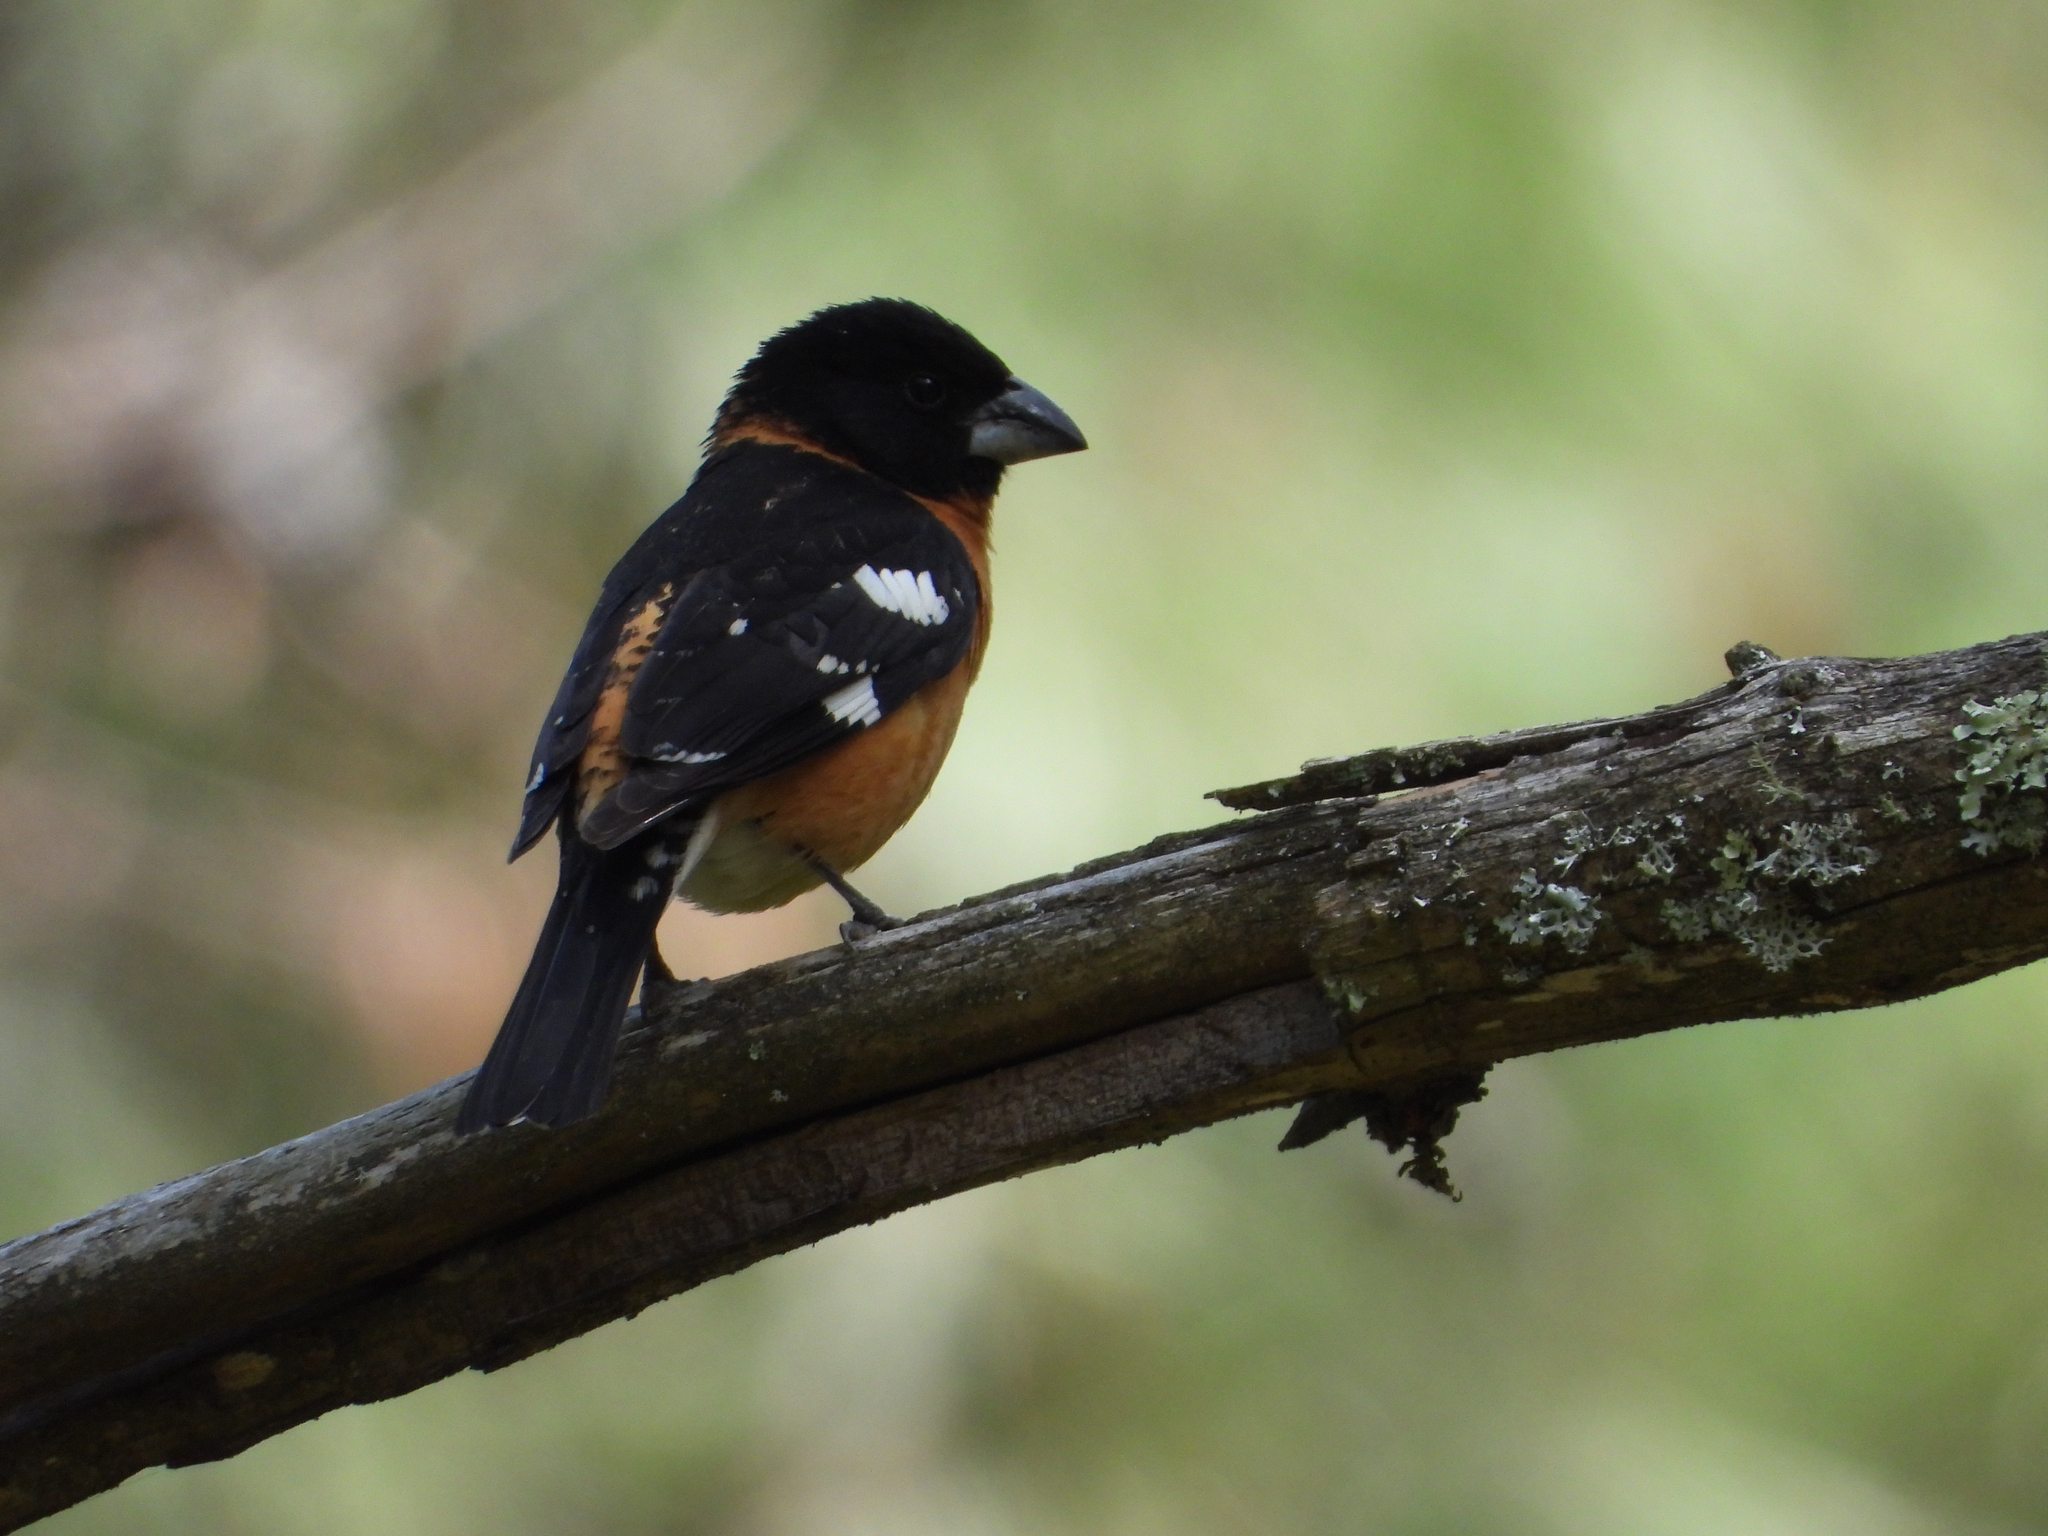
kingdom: Animalia
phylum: Chordata
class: Aves
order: Passeriformes
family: Cardinalidae
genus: Pheucticus
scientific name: Pheucticus melanocephalus
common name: Black-headed grosbeak
